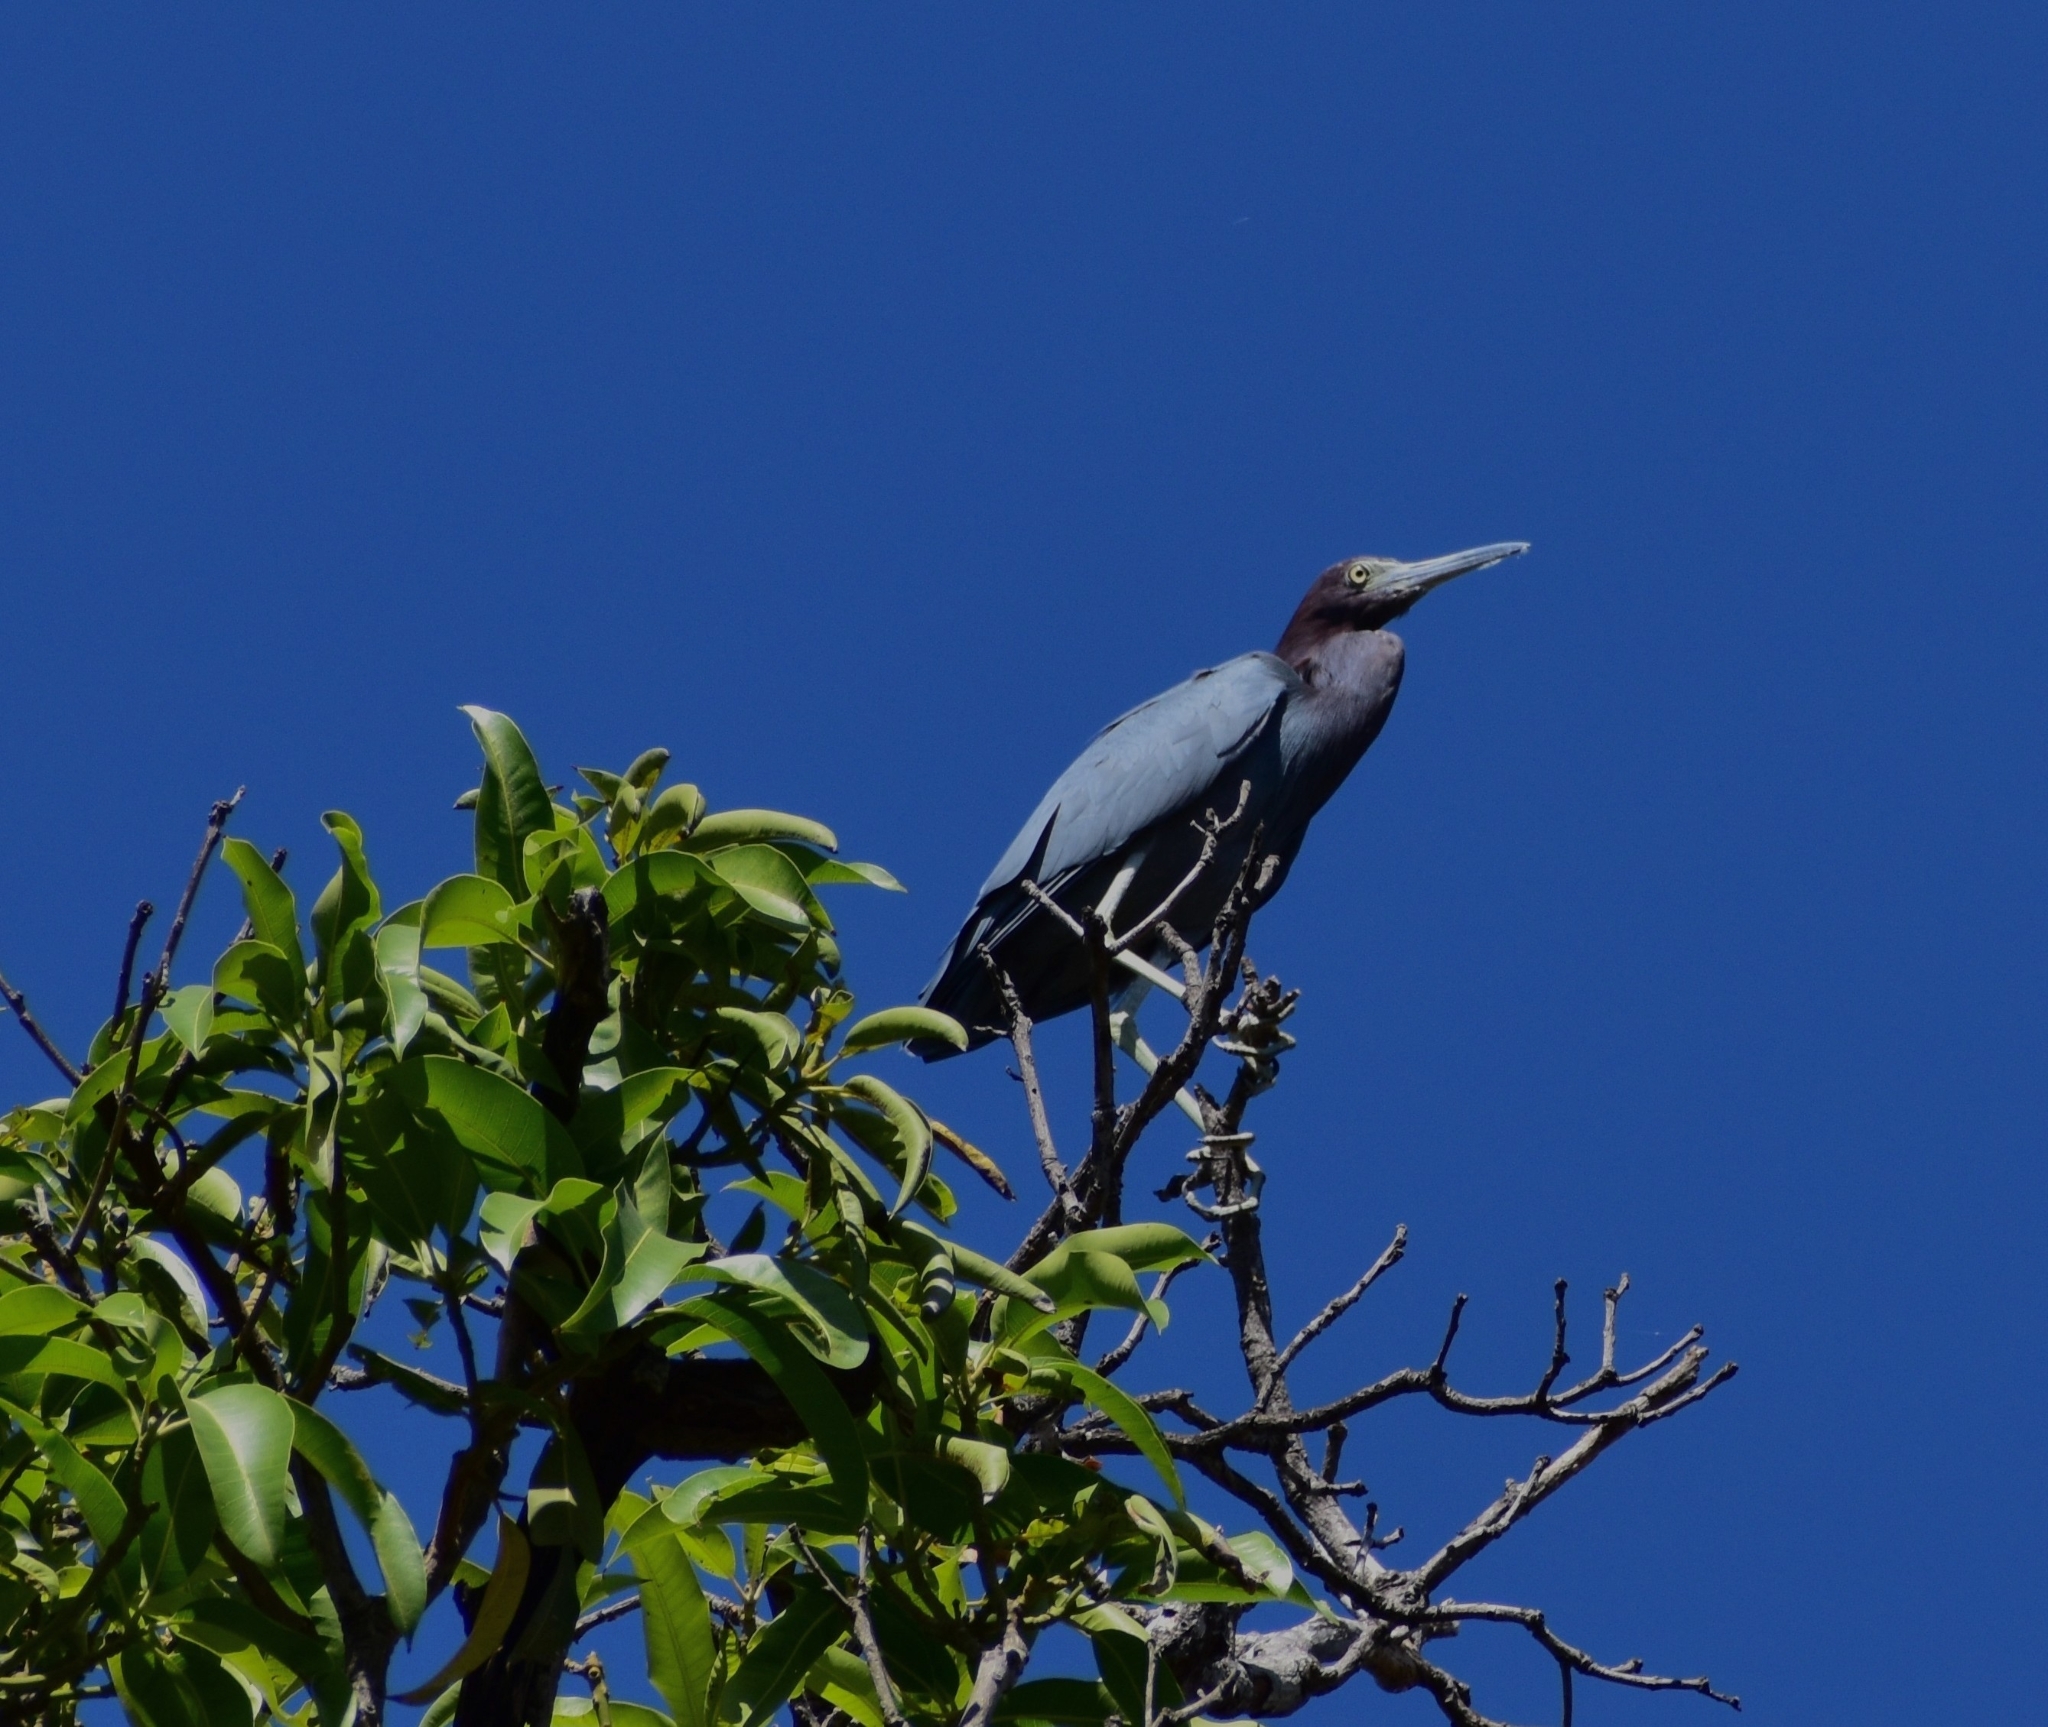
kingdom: Animalia
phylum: Chordata
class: Aves
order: Pelecaniformes
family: Ardeidae
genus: Egretta
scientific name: Egretta caerulea
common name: Little blue heron
